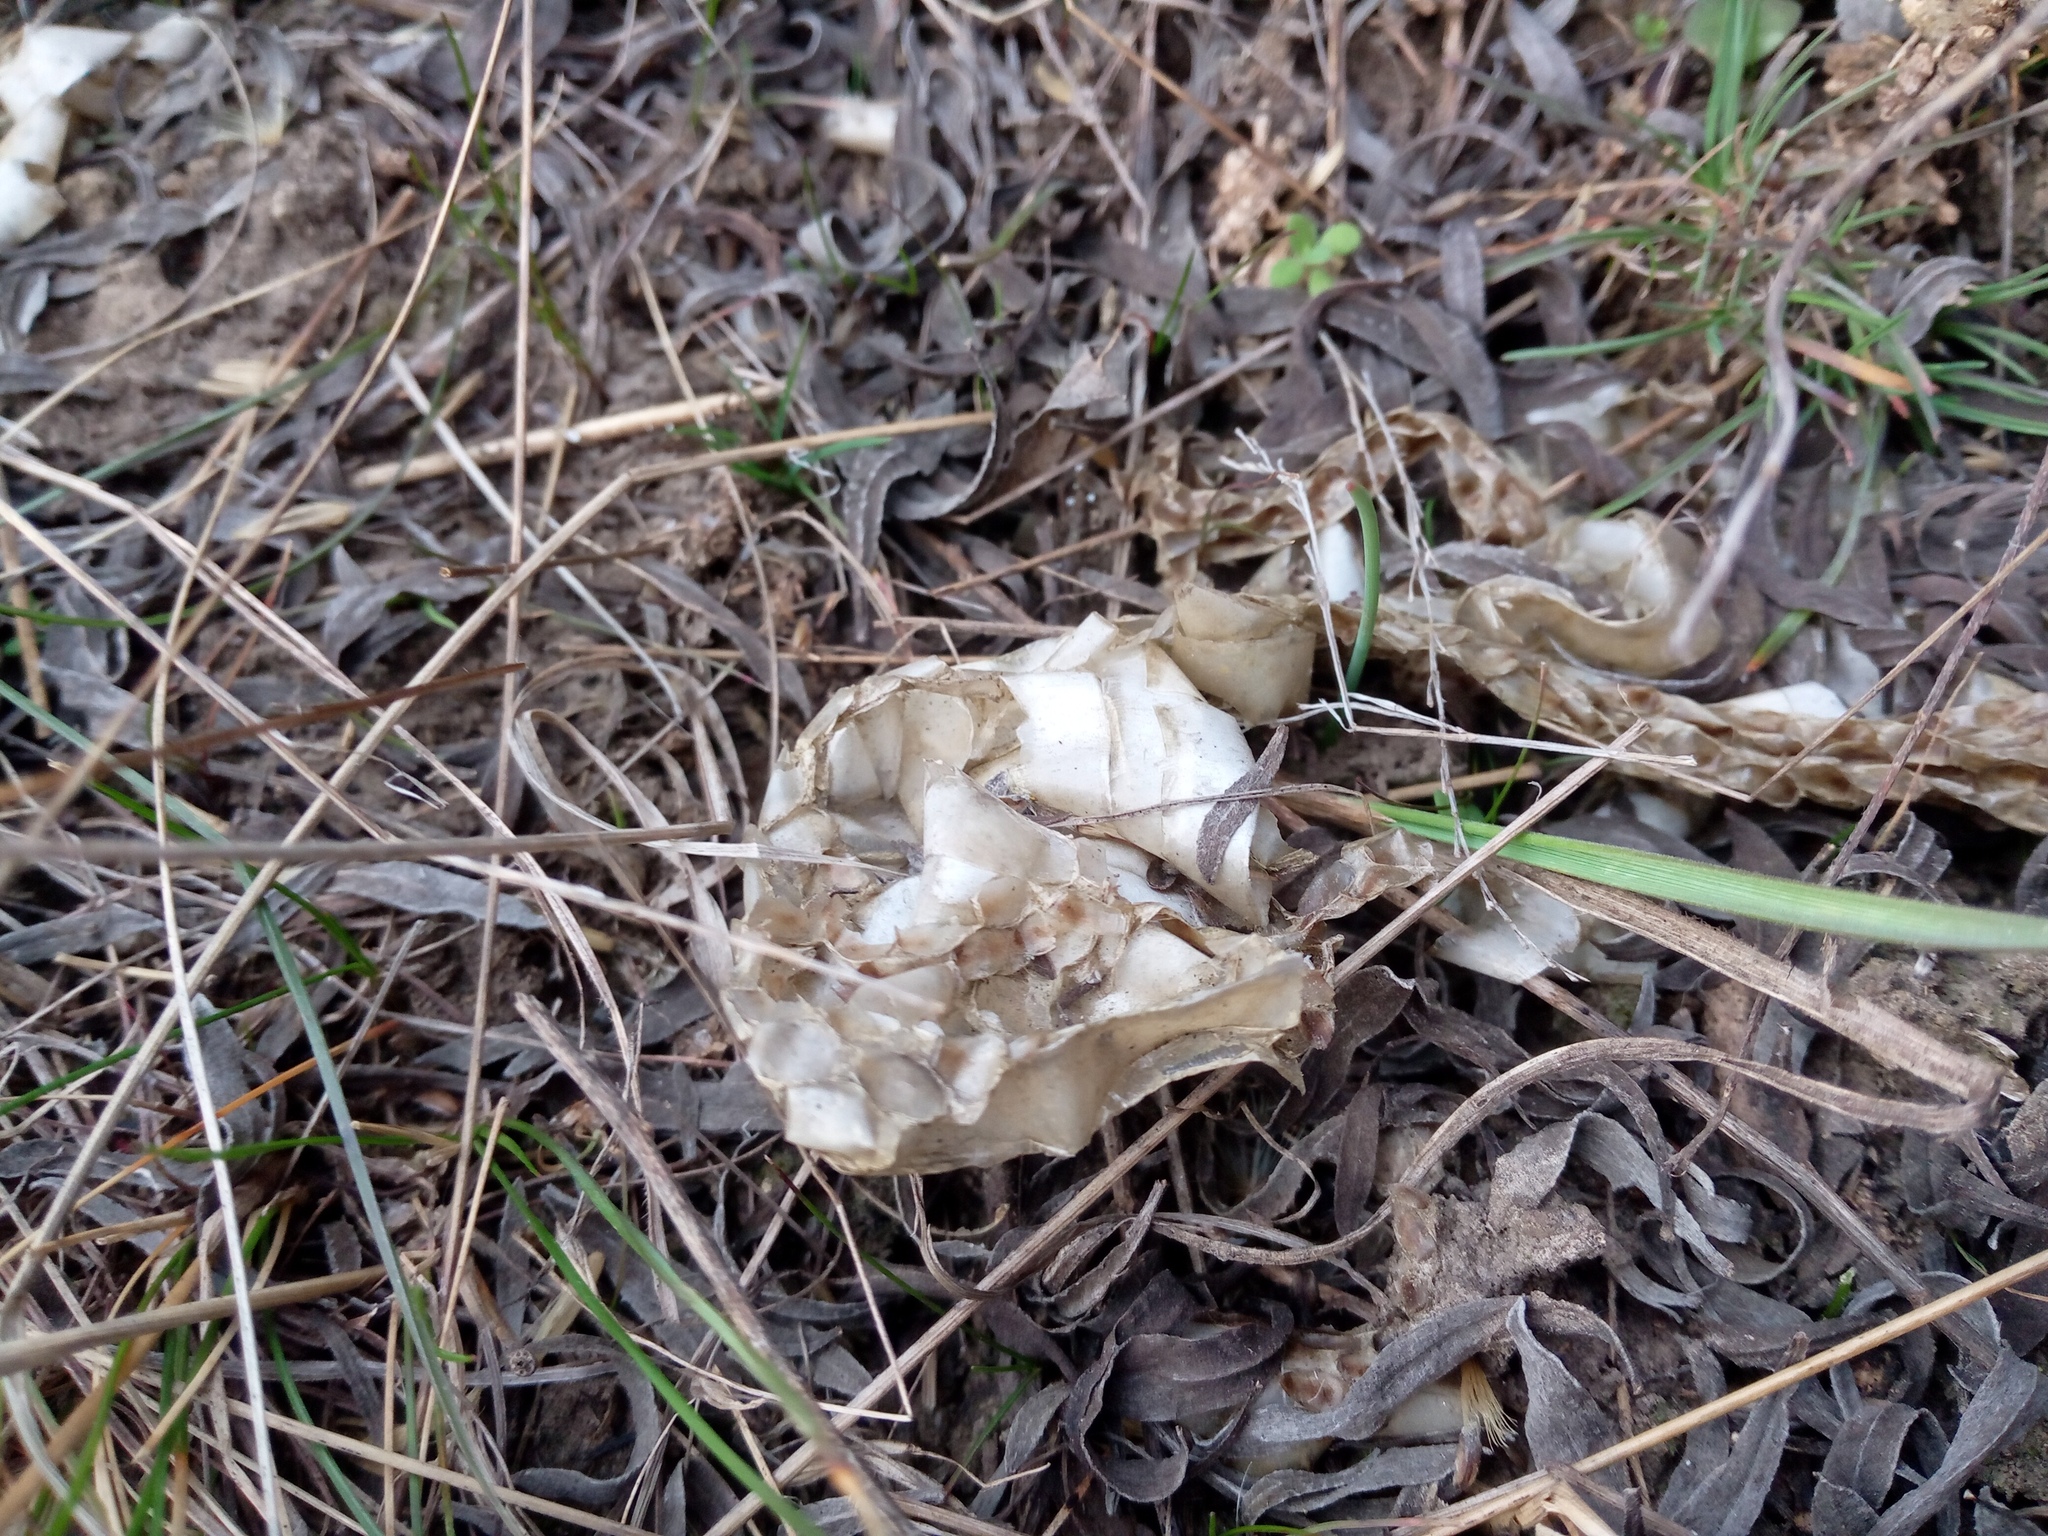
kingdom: Animalia
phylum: Chordata
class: Squamata
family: Colubridae
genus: Elaphe
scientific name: Elaphe sauromates
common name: Eastern four-lined ratsnake
